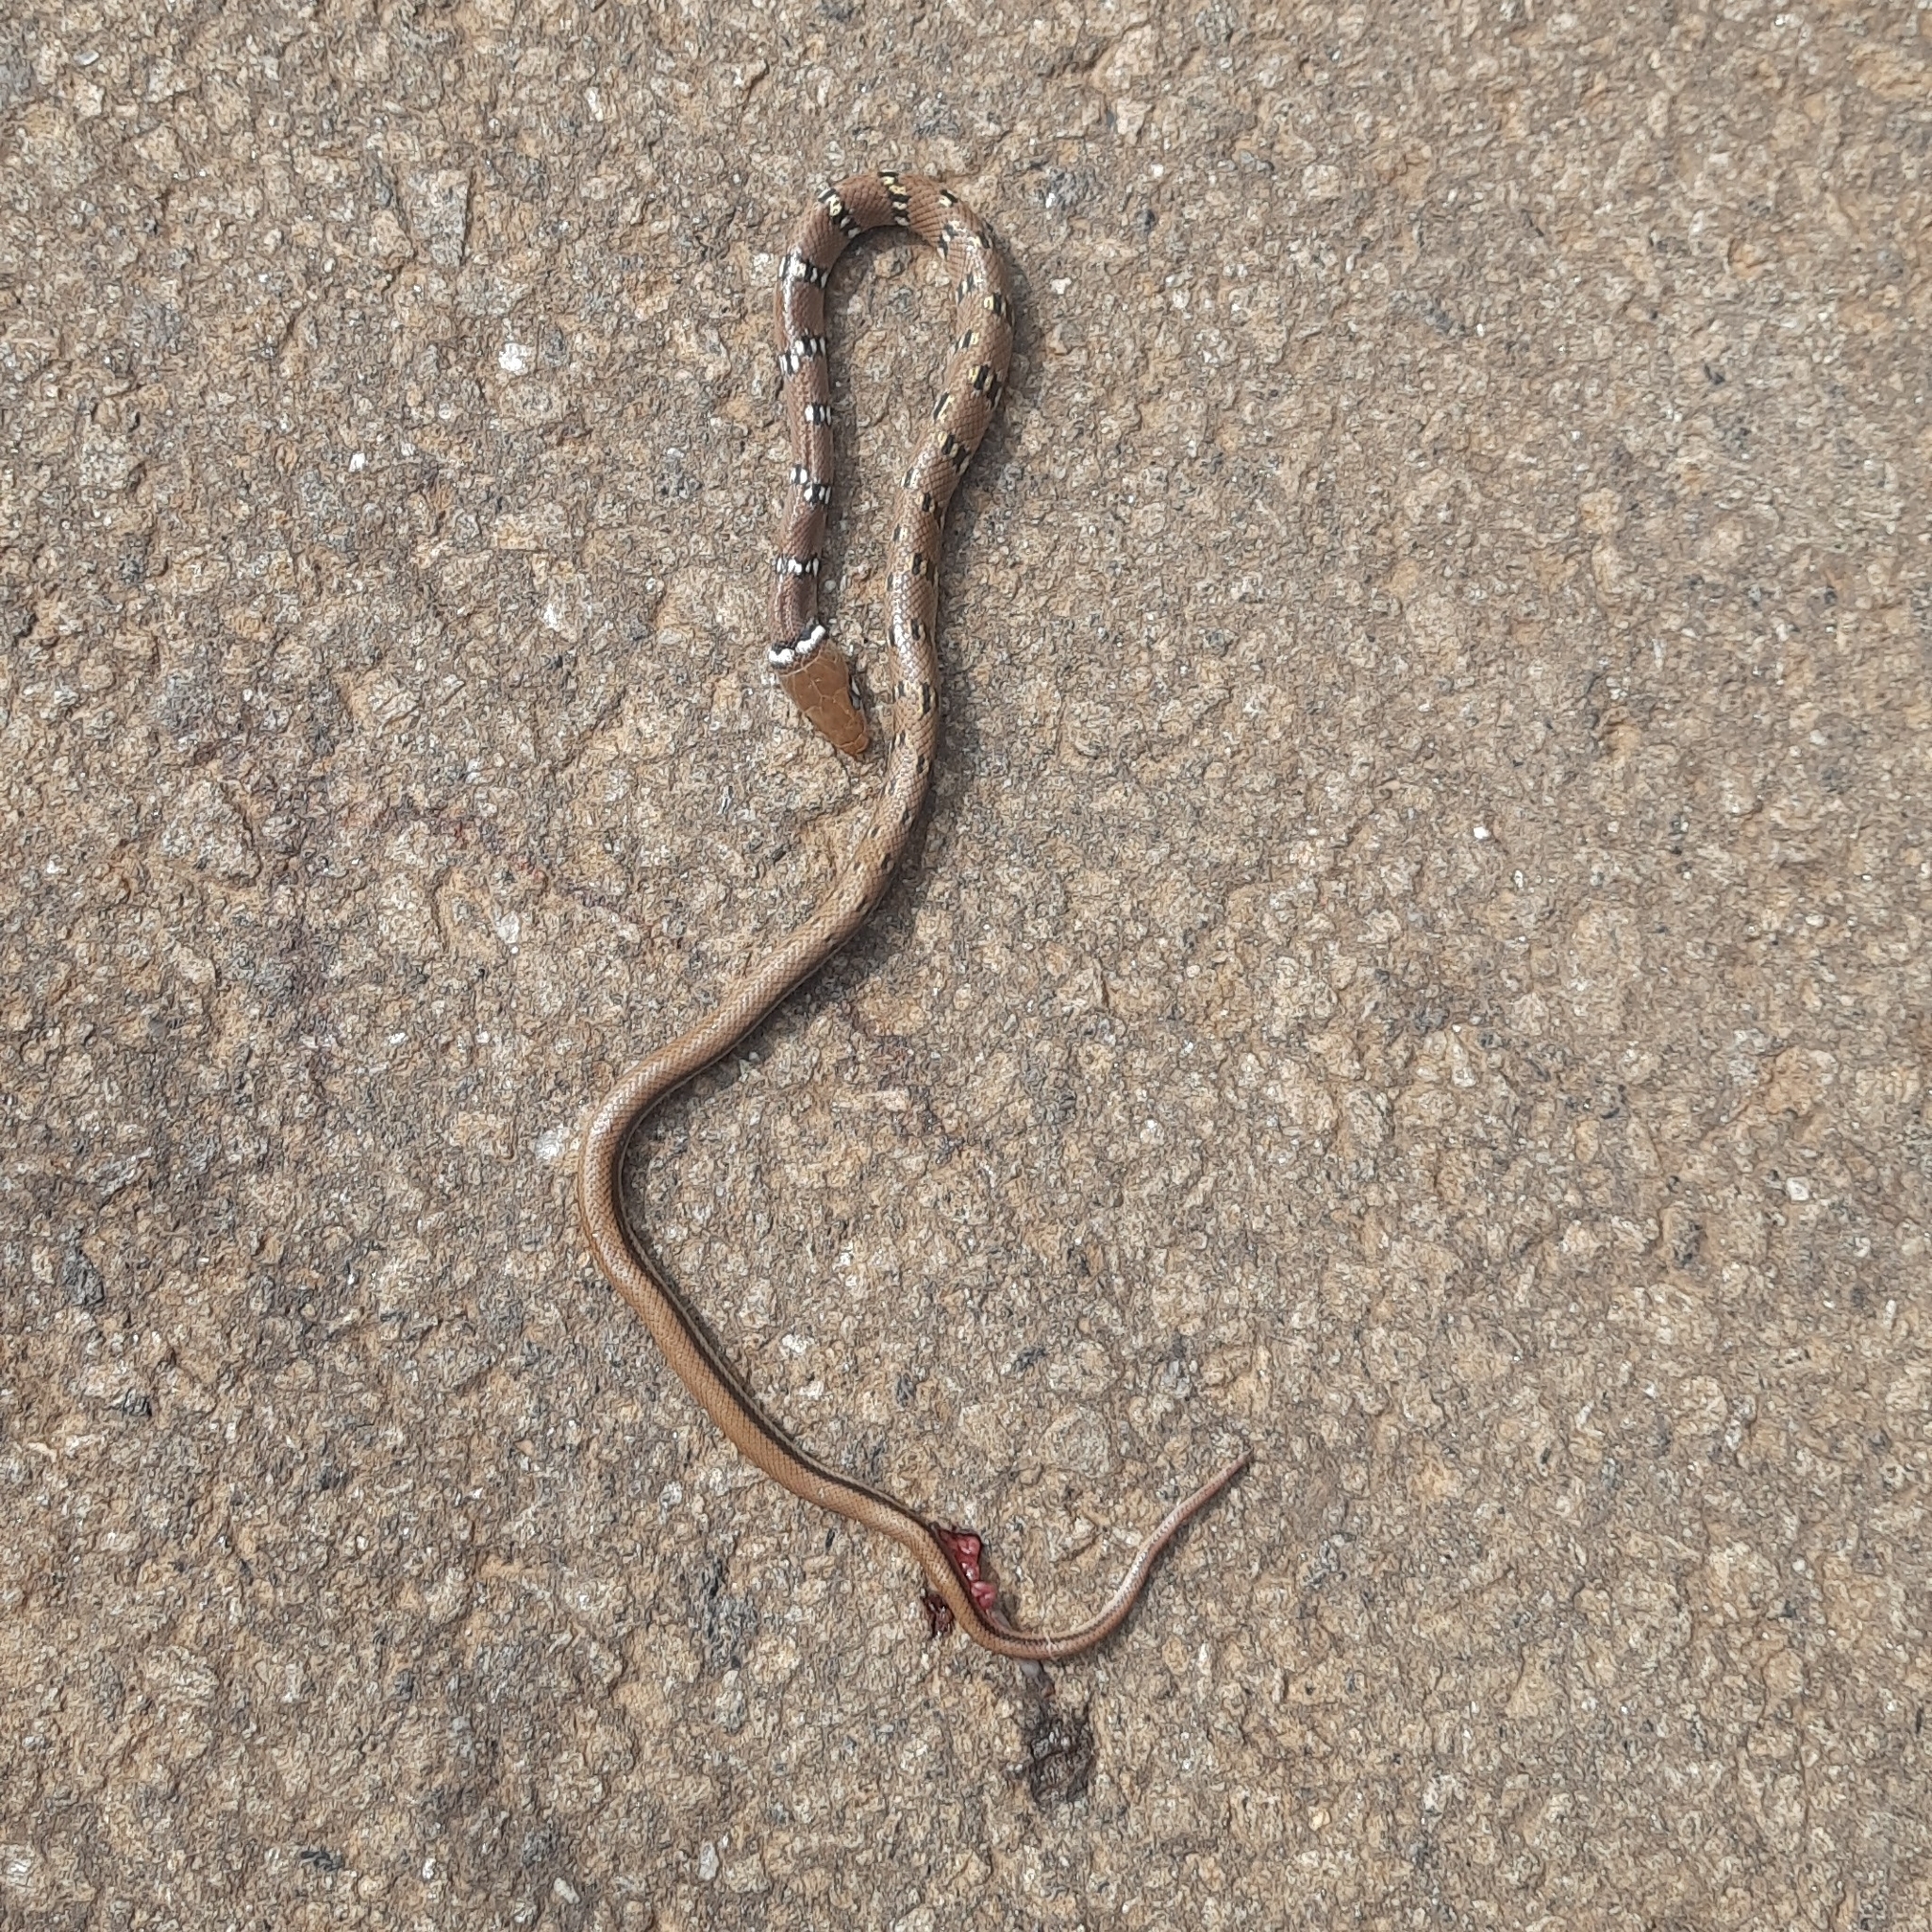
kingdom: Animalia
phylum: Chordata
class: Squamata
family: Colubridae
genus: Coelognathus
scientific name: Coelognathus helena
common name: Trinket snake
